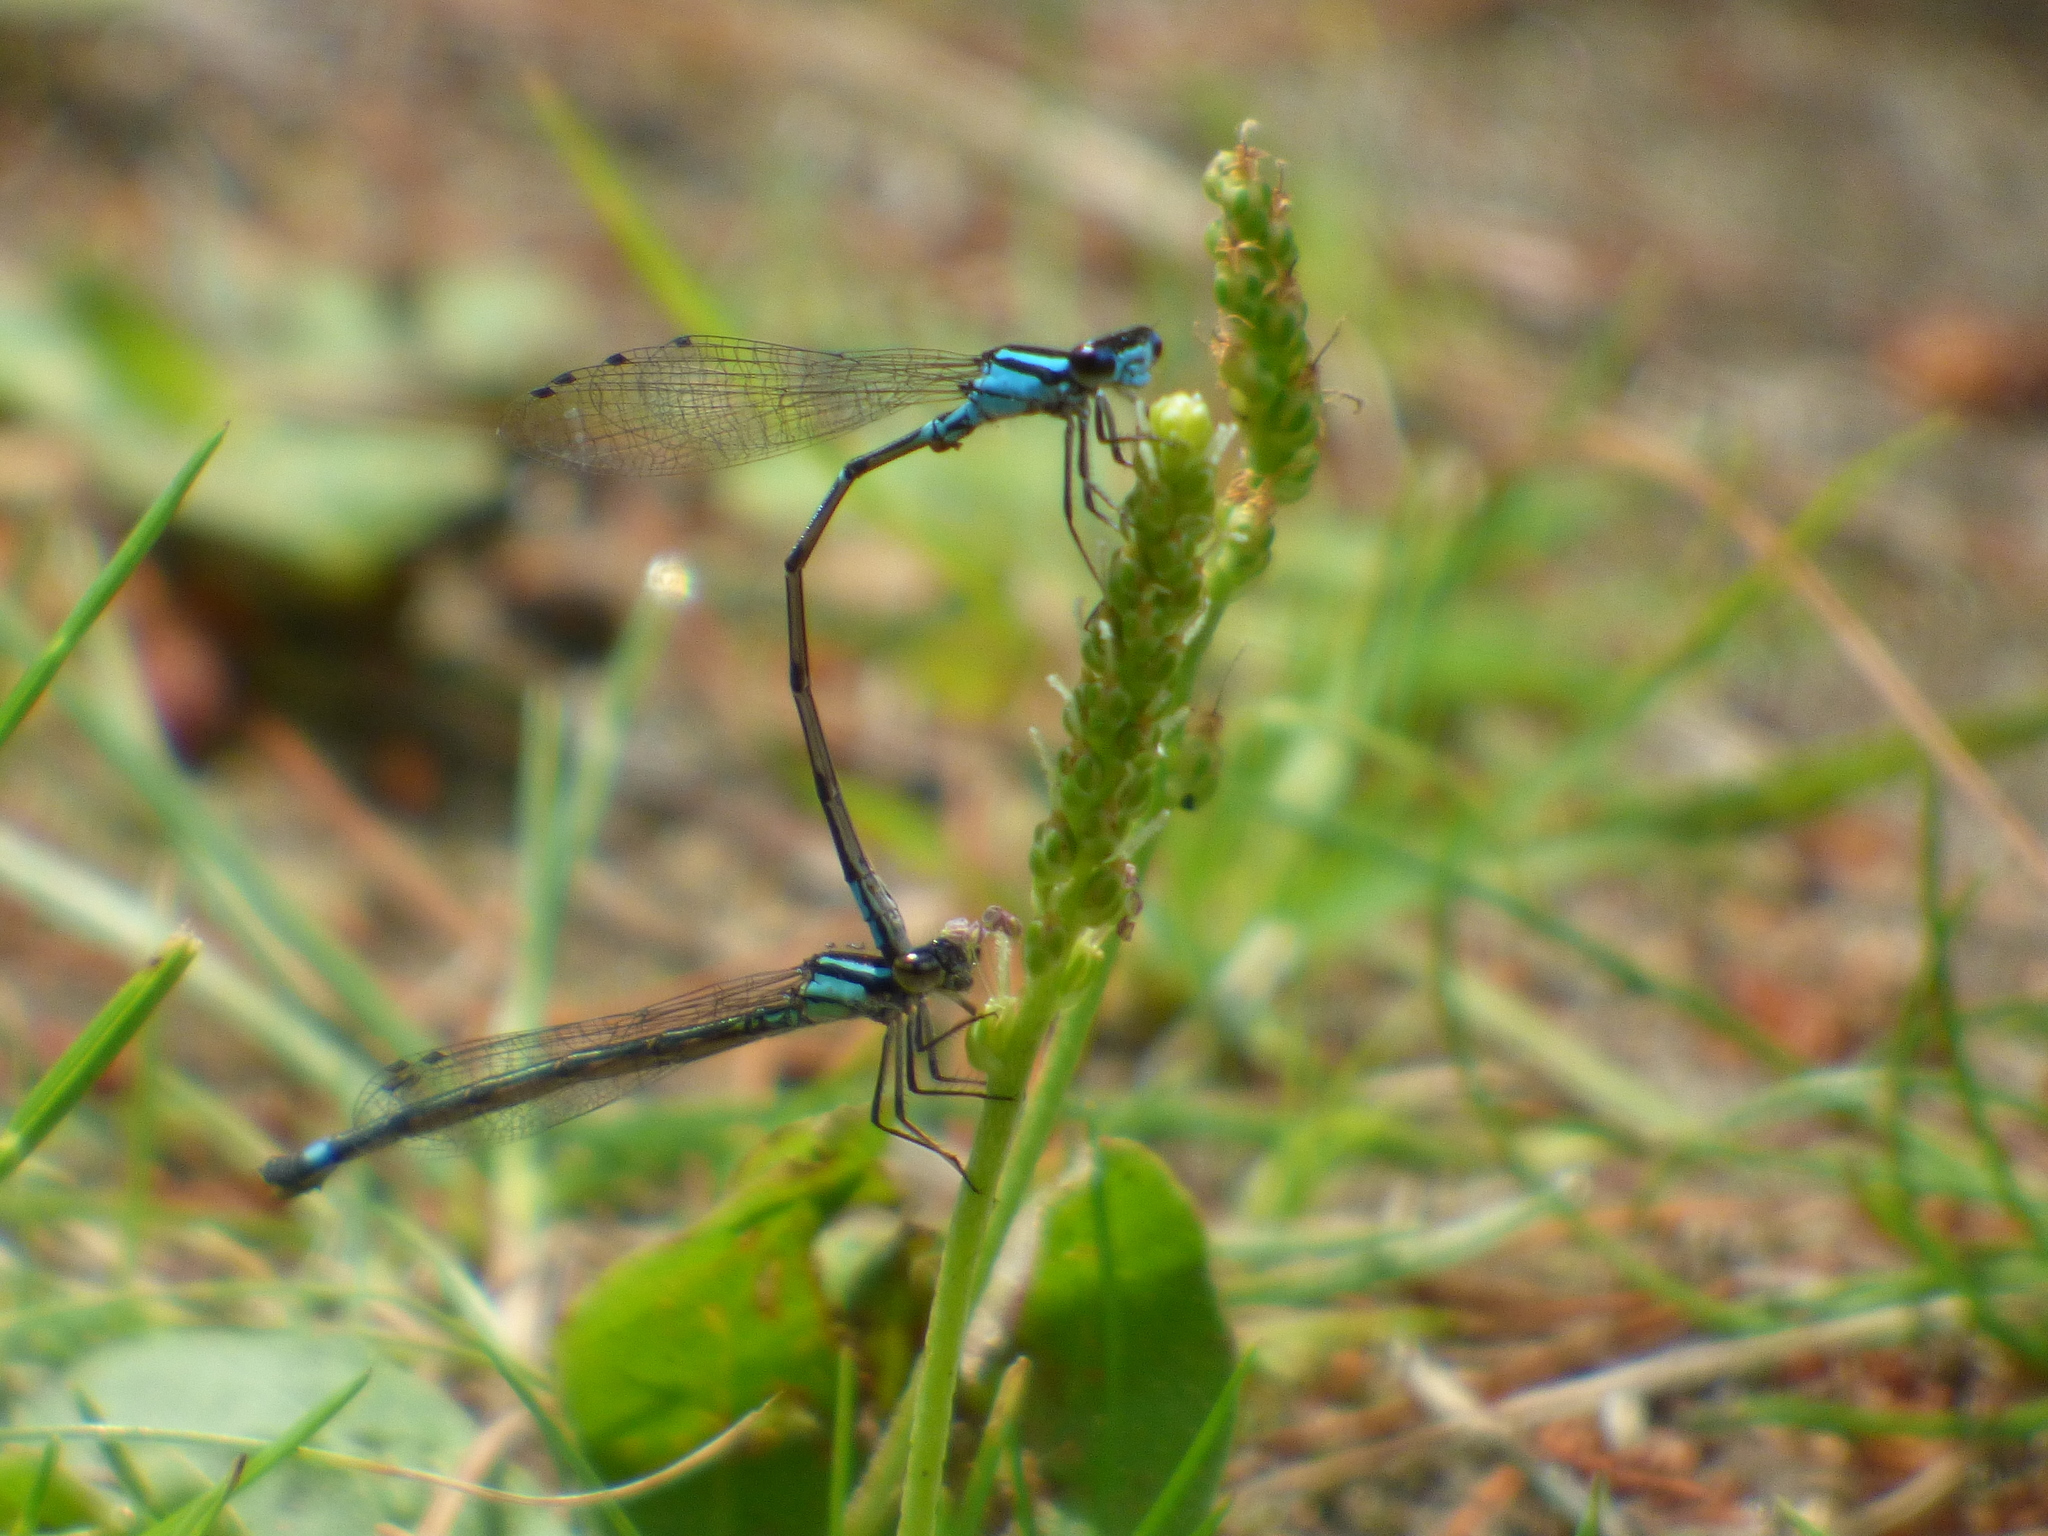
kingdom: Animalia
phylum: Arthropoda
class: Insecta
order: Odonata
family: Coenagrionidae
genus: Enallagma
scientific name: Enallagma geminatum
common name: Skimming bluet
